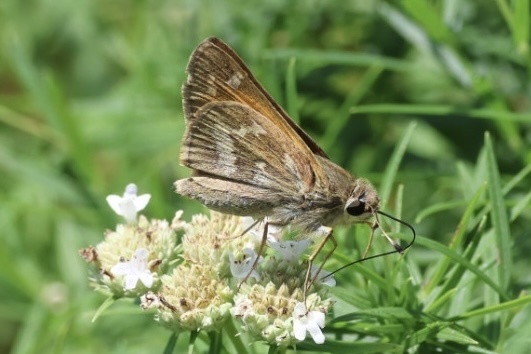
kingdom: Animalia
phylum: Arthropoda
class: Insecta
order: Lepidoptera
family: Hesperiidae
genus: Atalopedes
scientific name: Atalopedes
